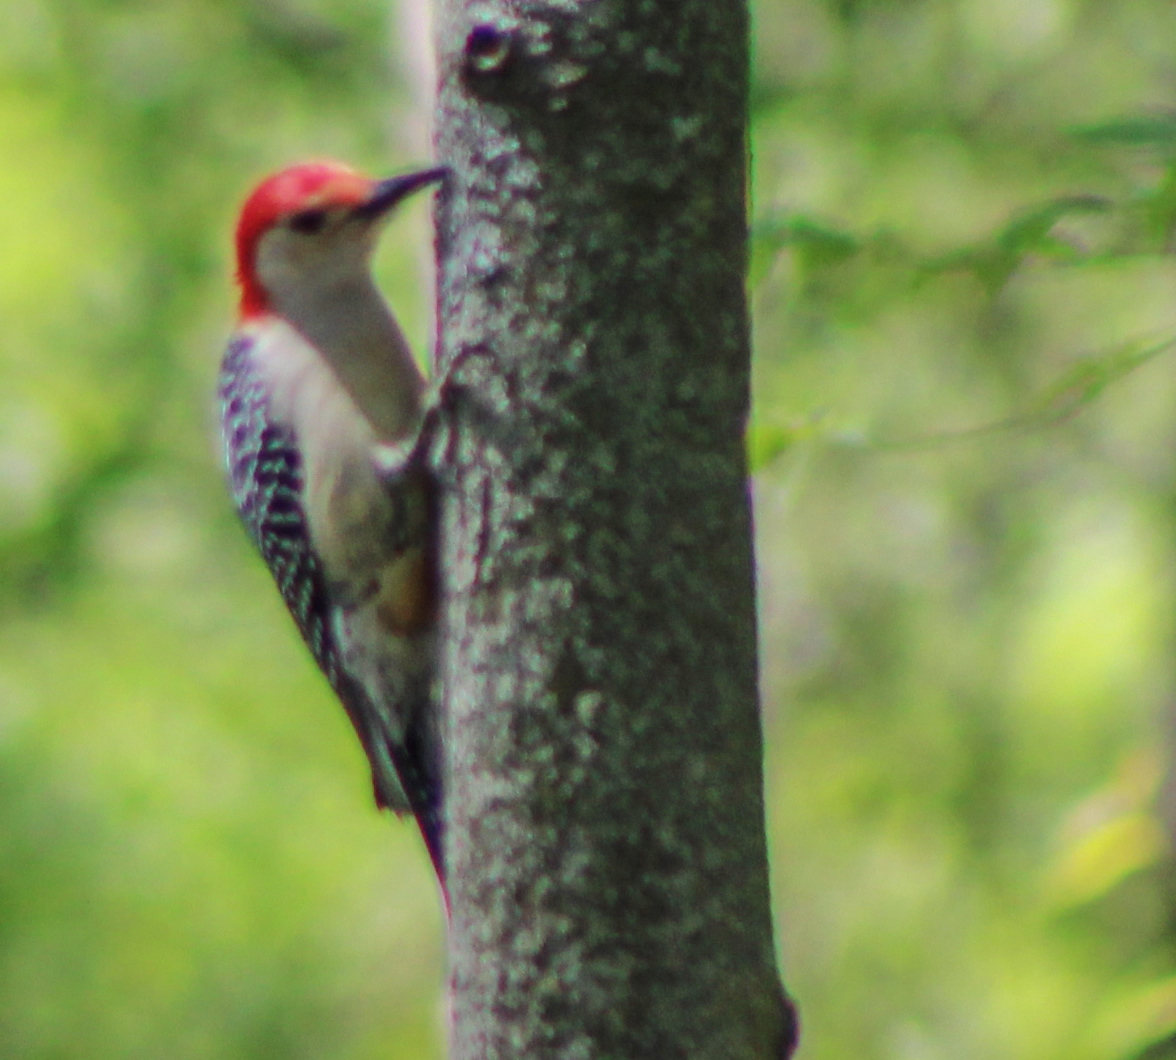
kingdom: Animalia
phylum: Chordata
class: Aves
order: Piciformes
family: Picidae
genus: Melanerpes
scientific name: Melanerpes carolinus
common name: Red-bellied woodpecker
